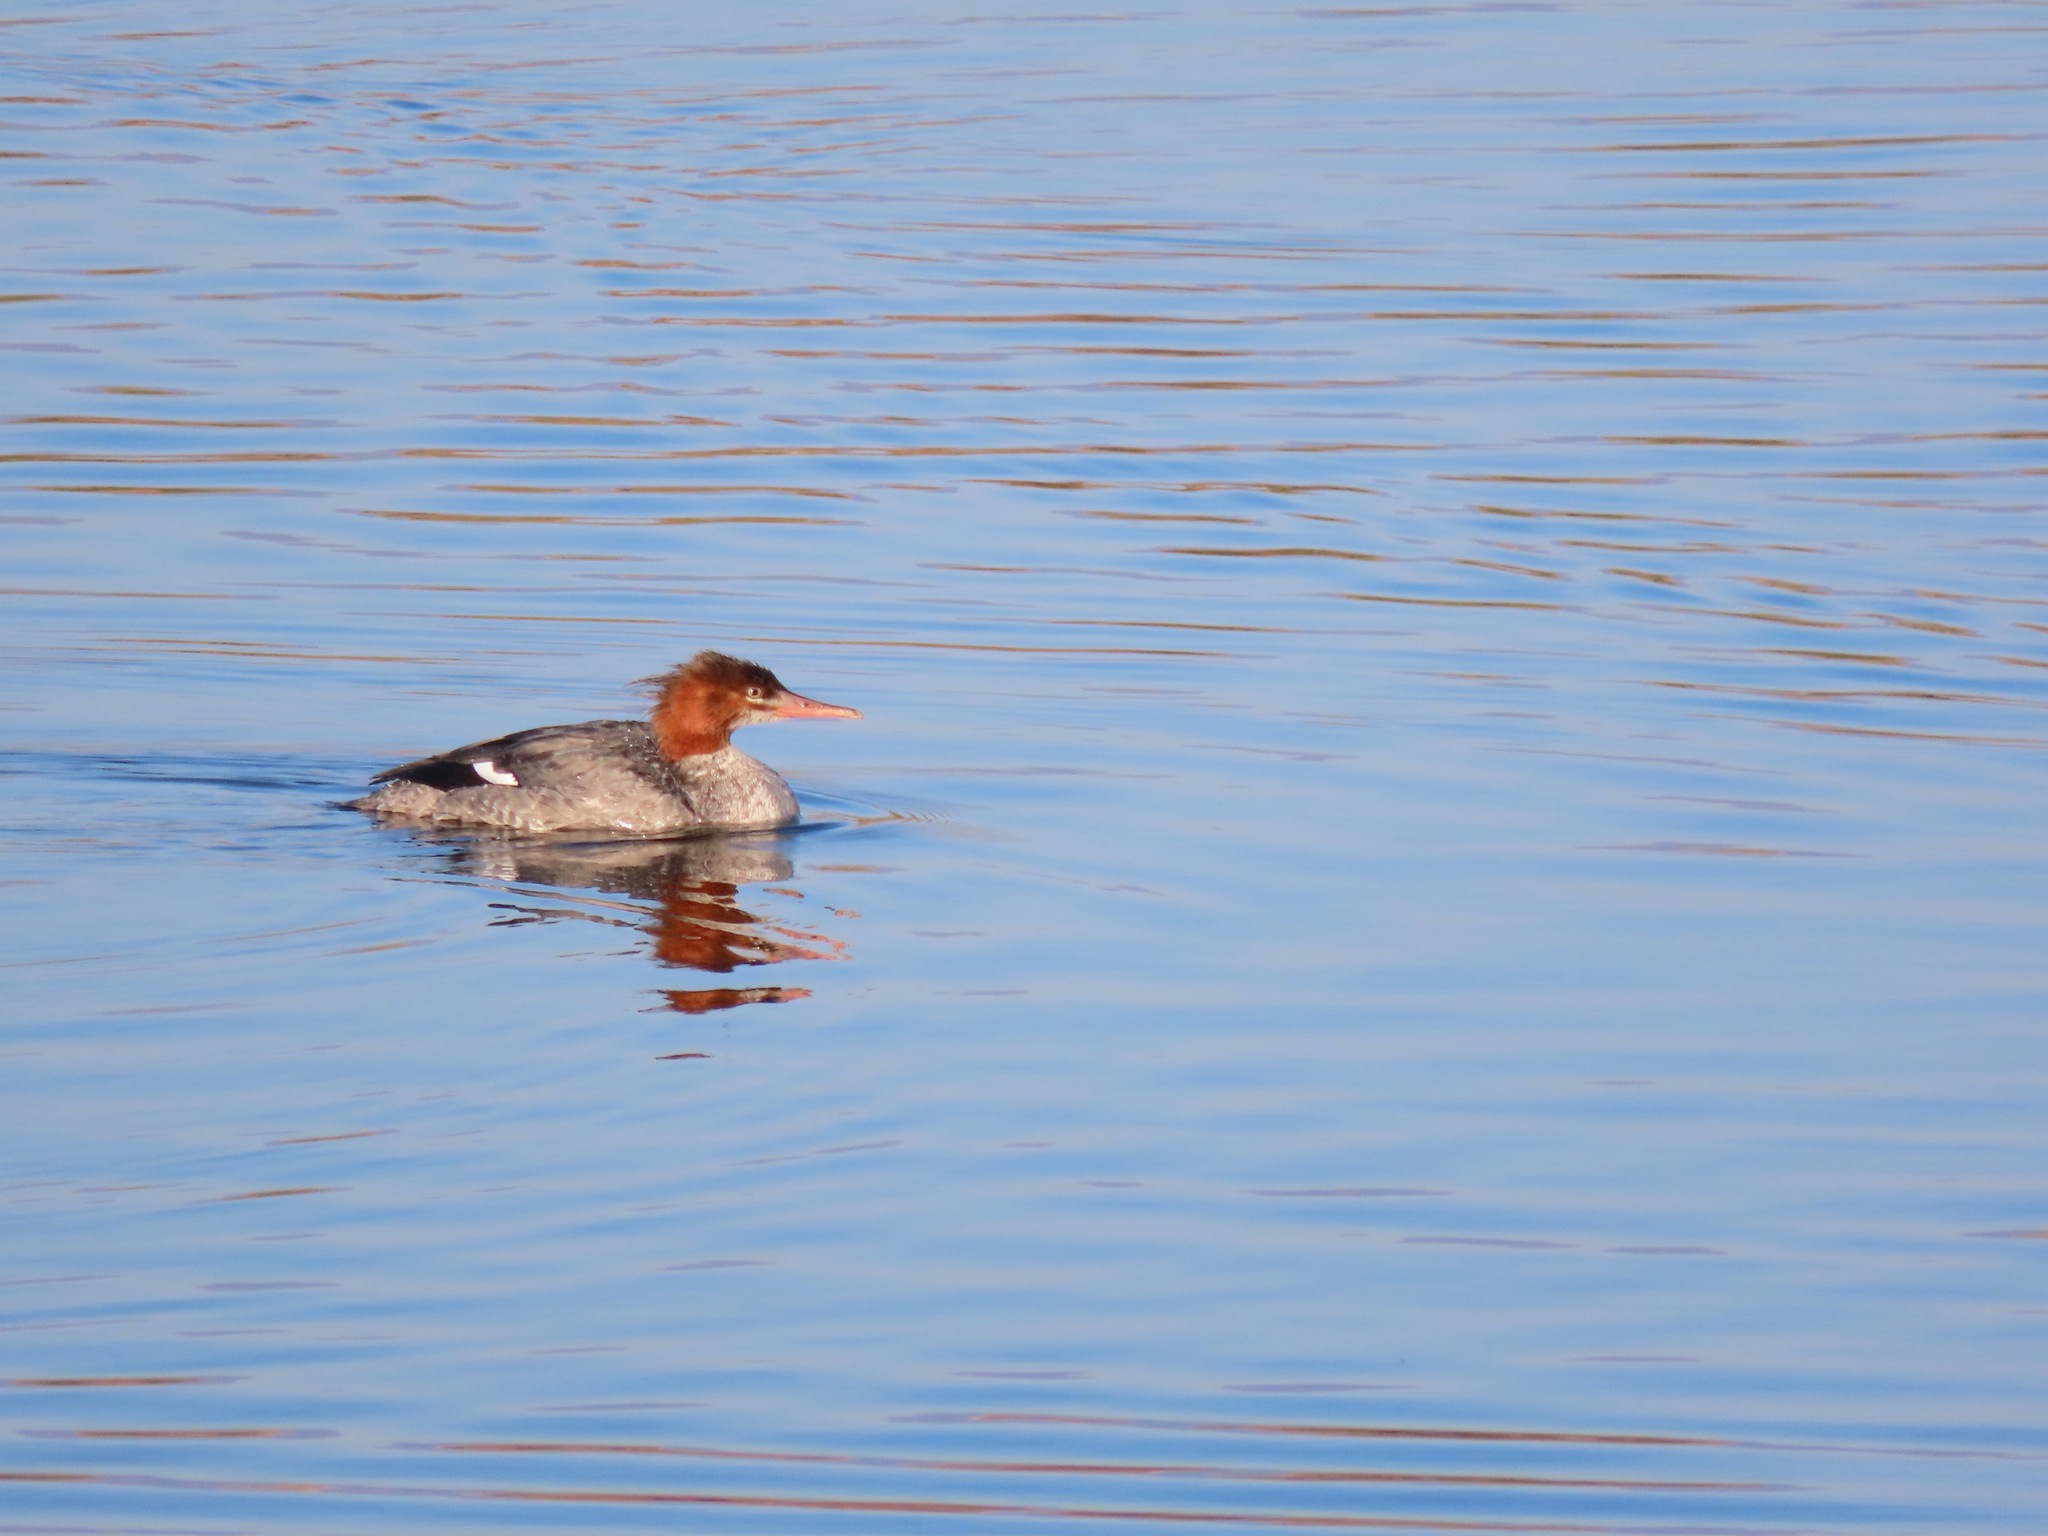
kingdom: Animalia
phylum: Chordata
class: Aves
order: Anseriformes
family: Anatidae
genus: Mergus
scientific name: Mergus merganser
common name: Common merganser
